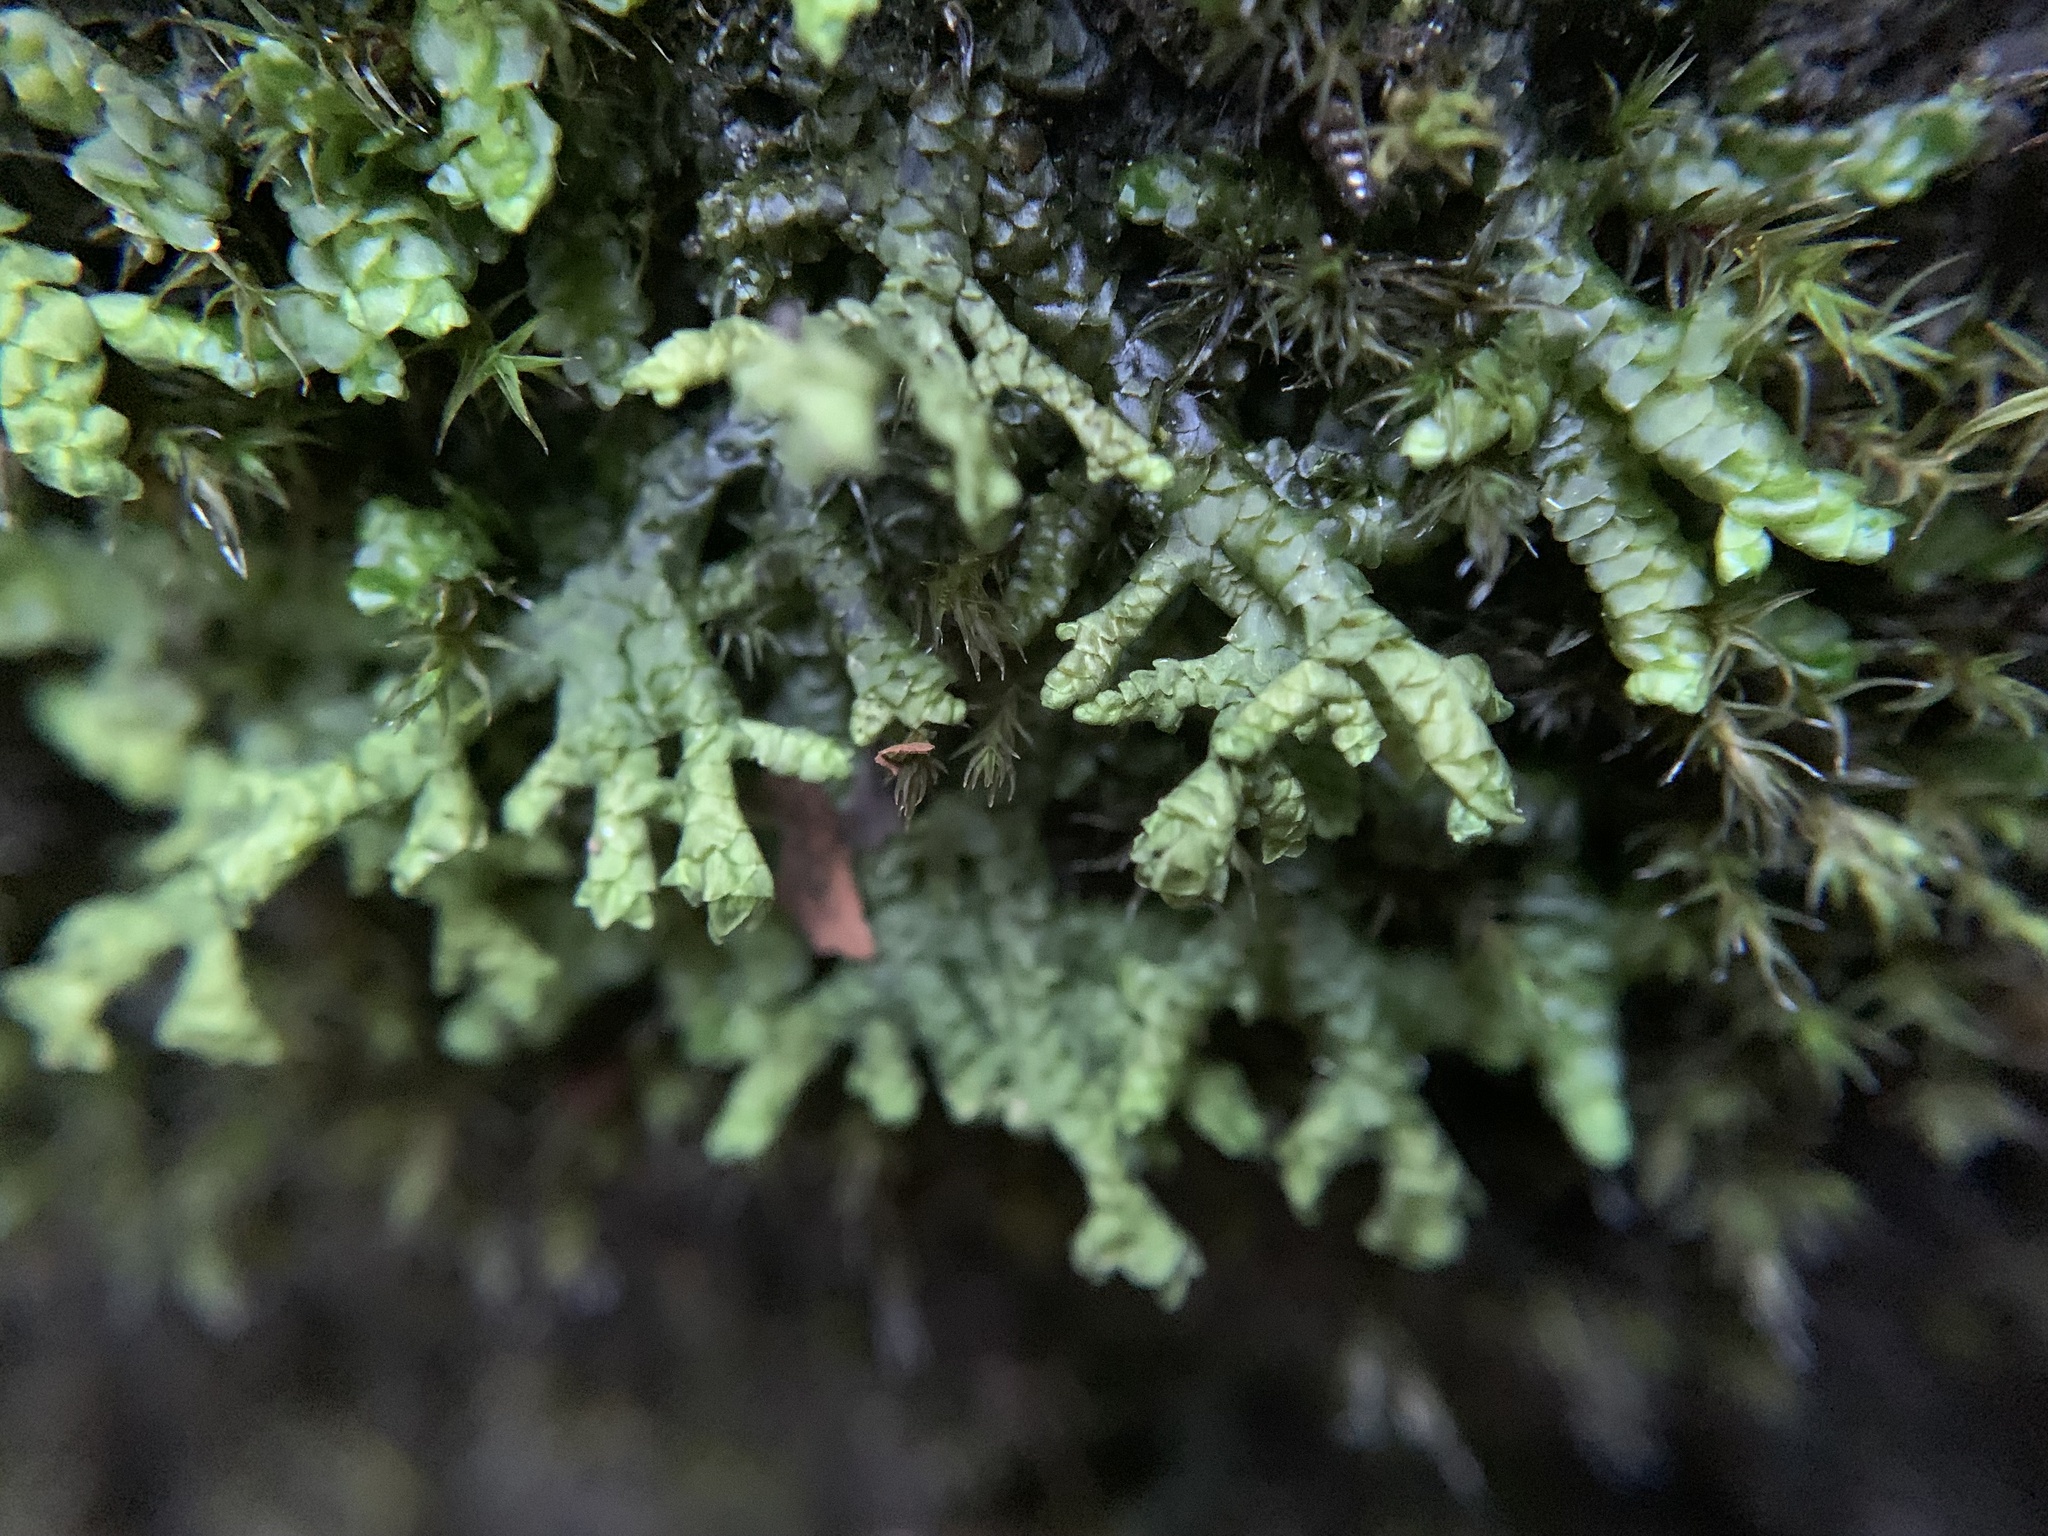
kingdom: Plantae
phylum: Marchantiophyta
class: Jungermanniopsida
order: Porellales
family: Porellaceae
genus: Porella
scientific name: Porella platyphylla
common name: Wall scalewort
